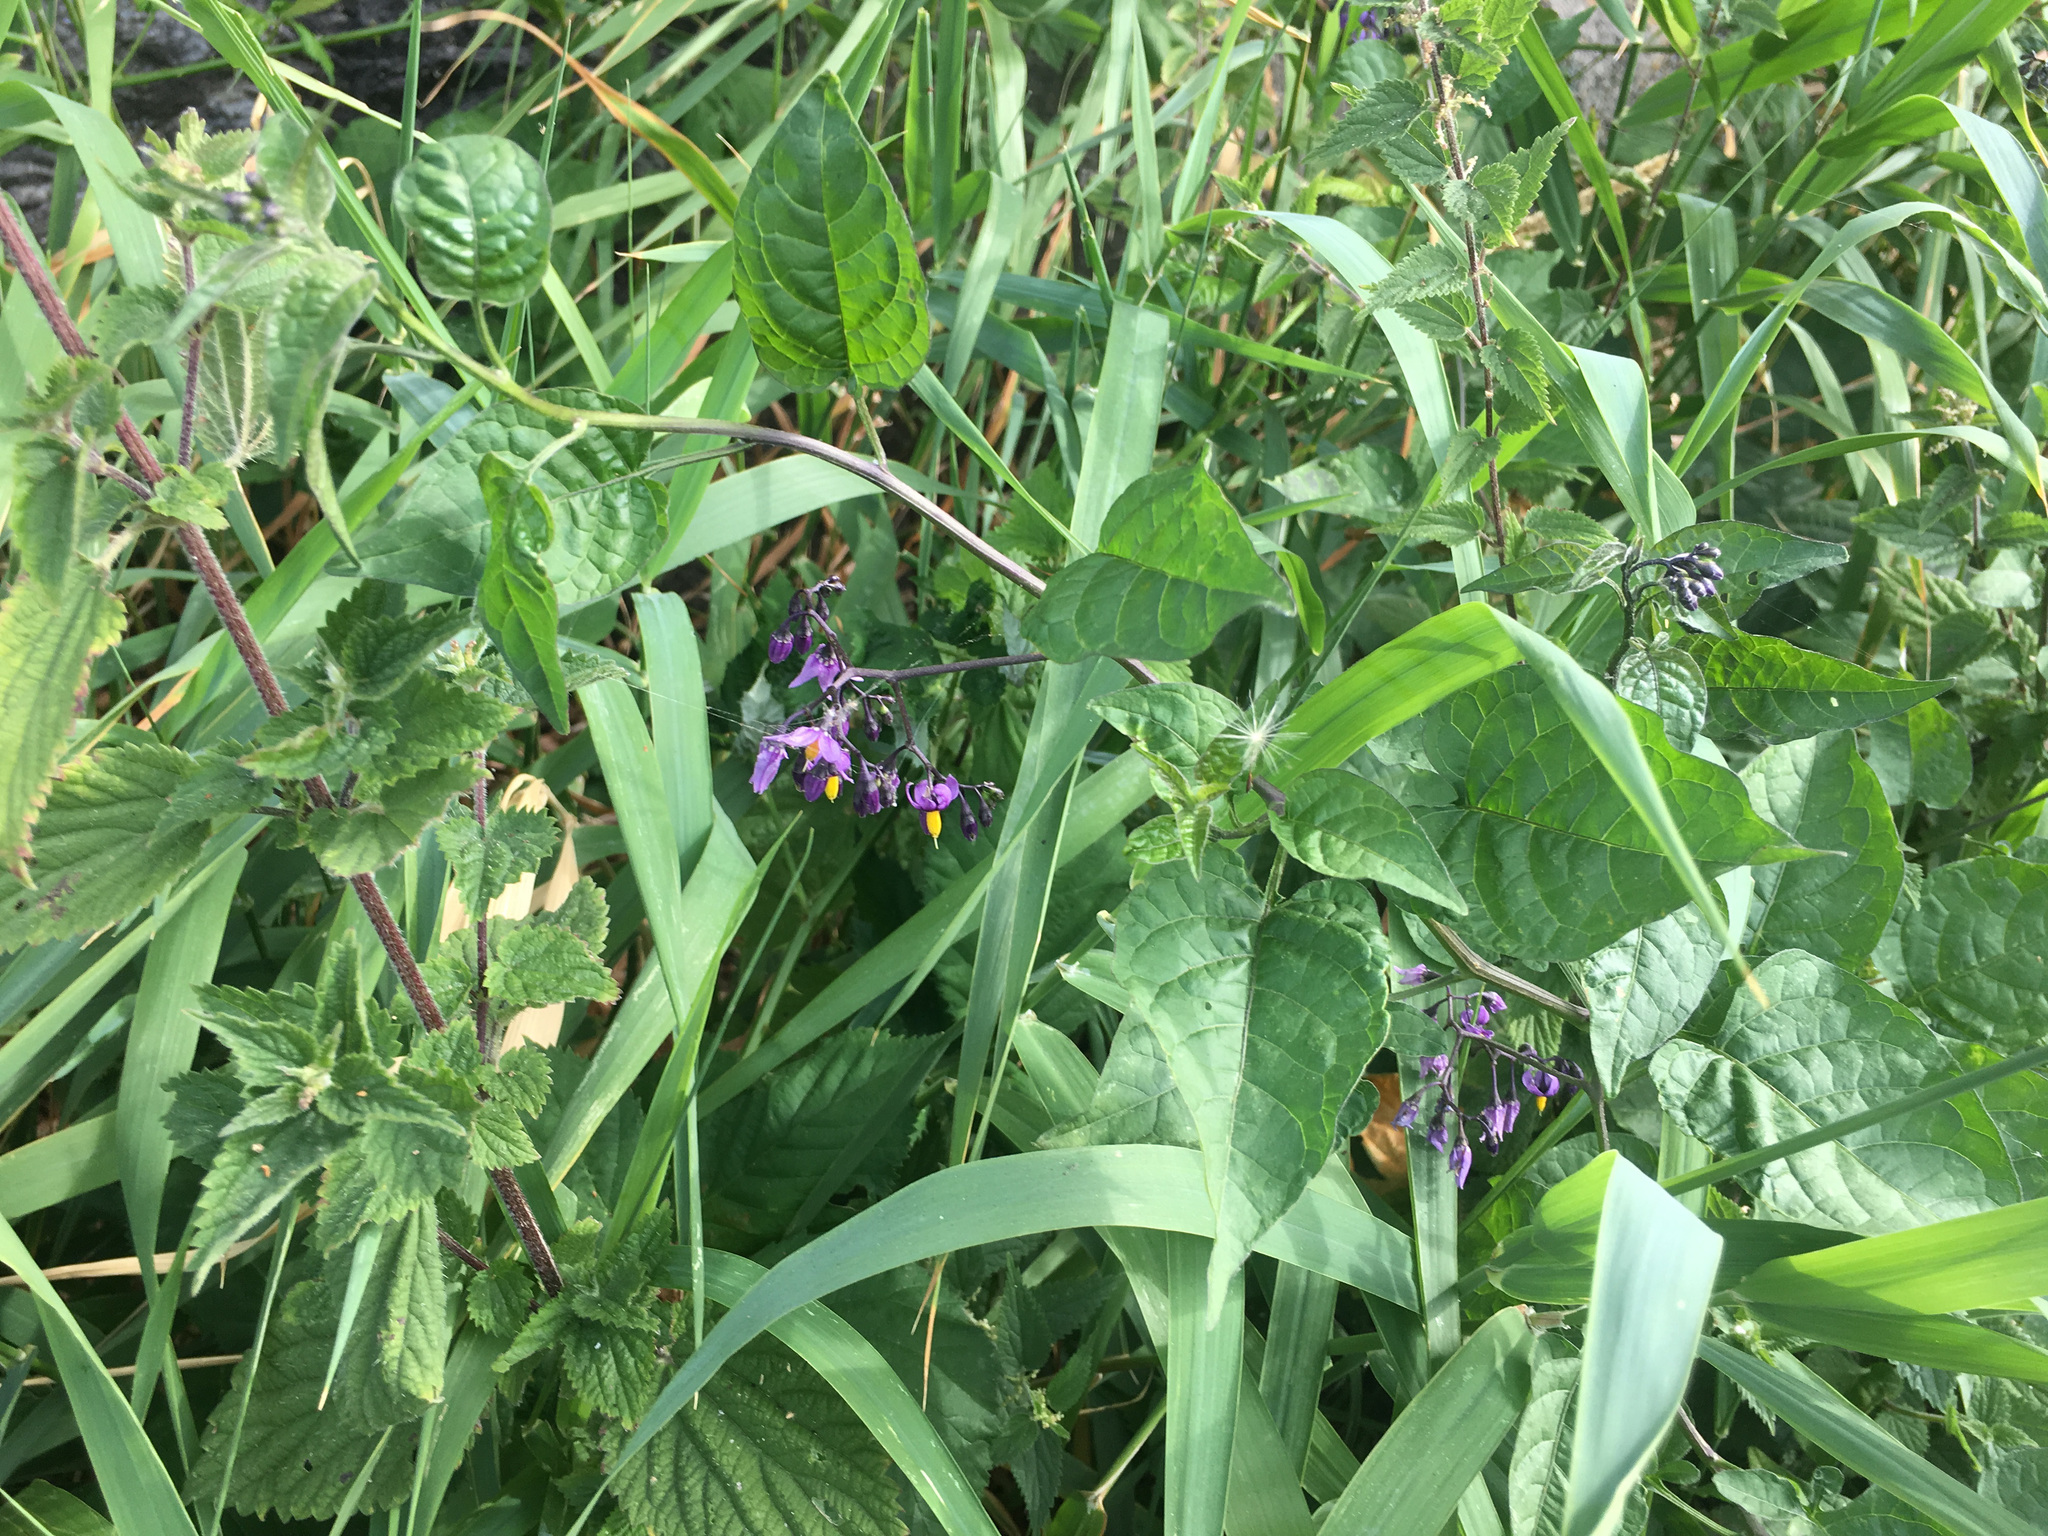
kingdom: Plantae
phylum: Tracheophyta
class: Magnoliopsida
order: Solanales
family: Solanaceae
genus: Solanum
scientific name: Solanum dulcamara
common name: Climbing nightshade
